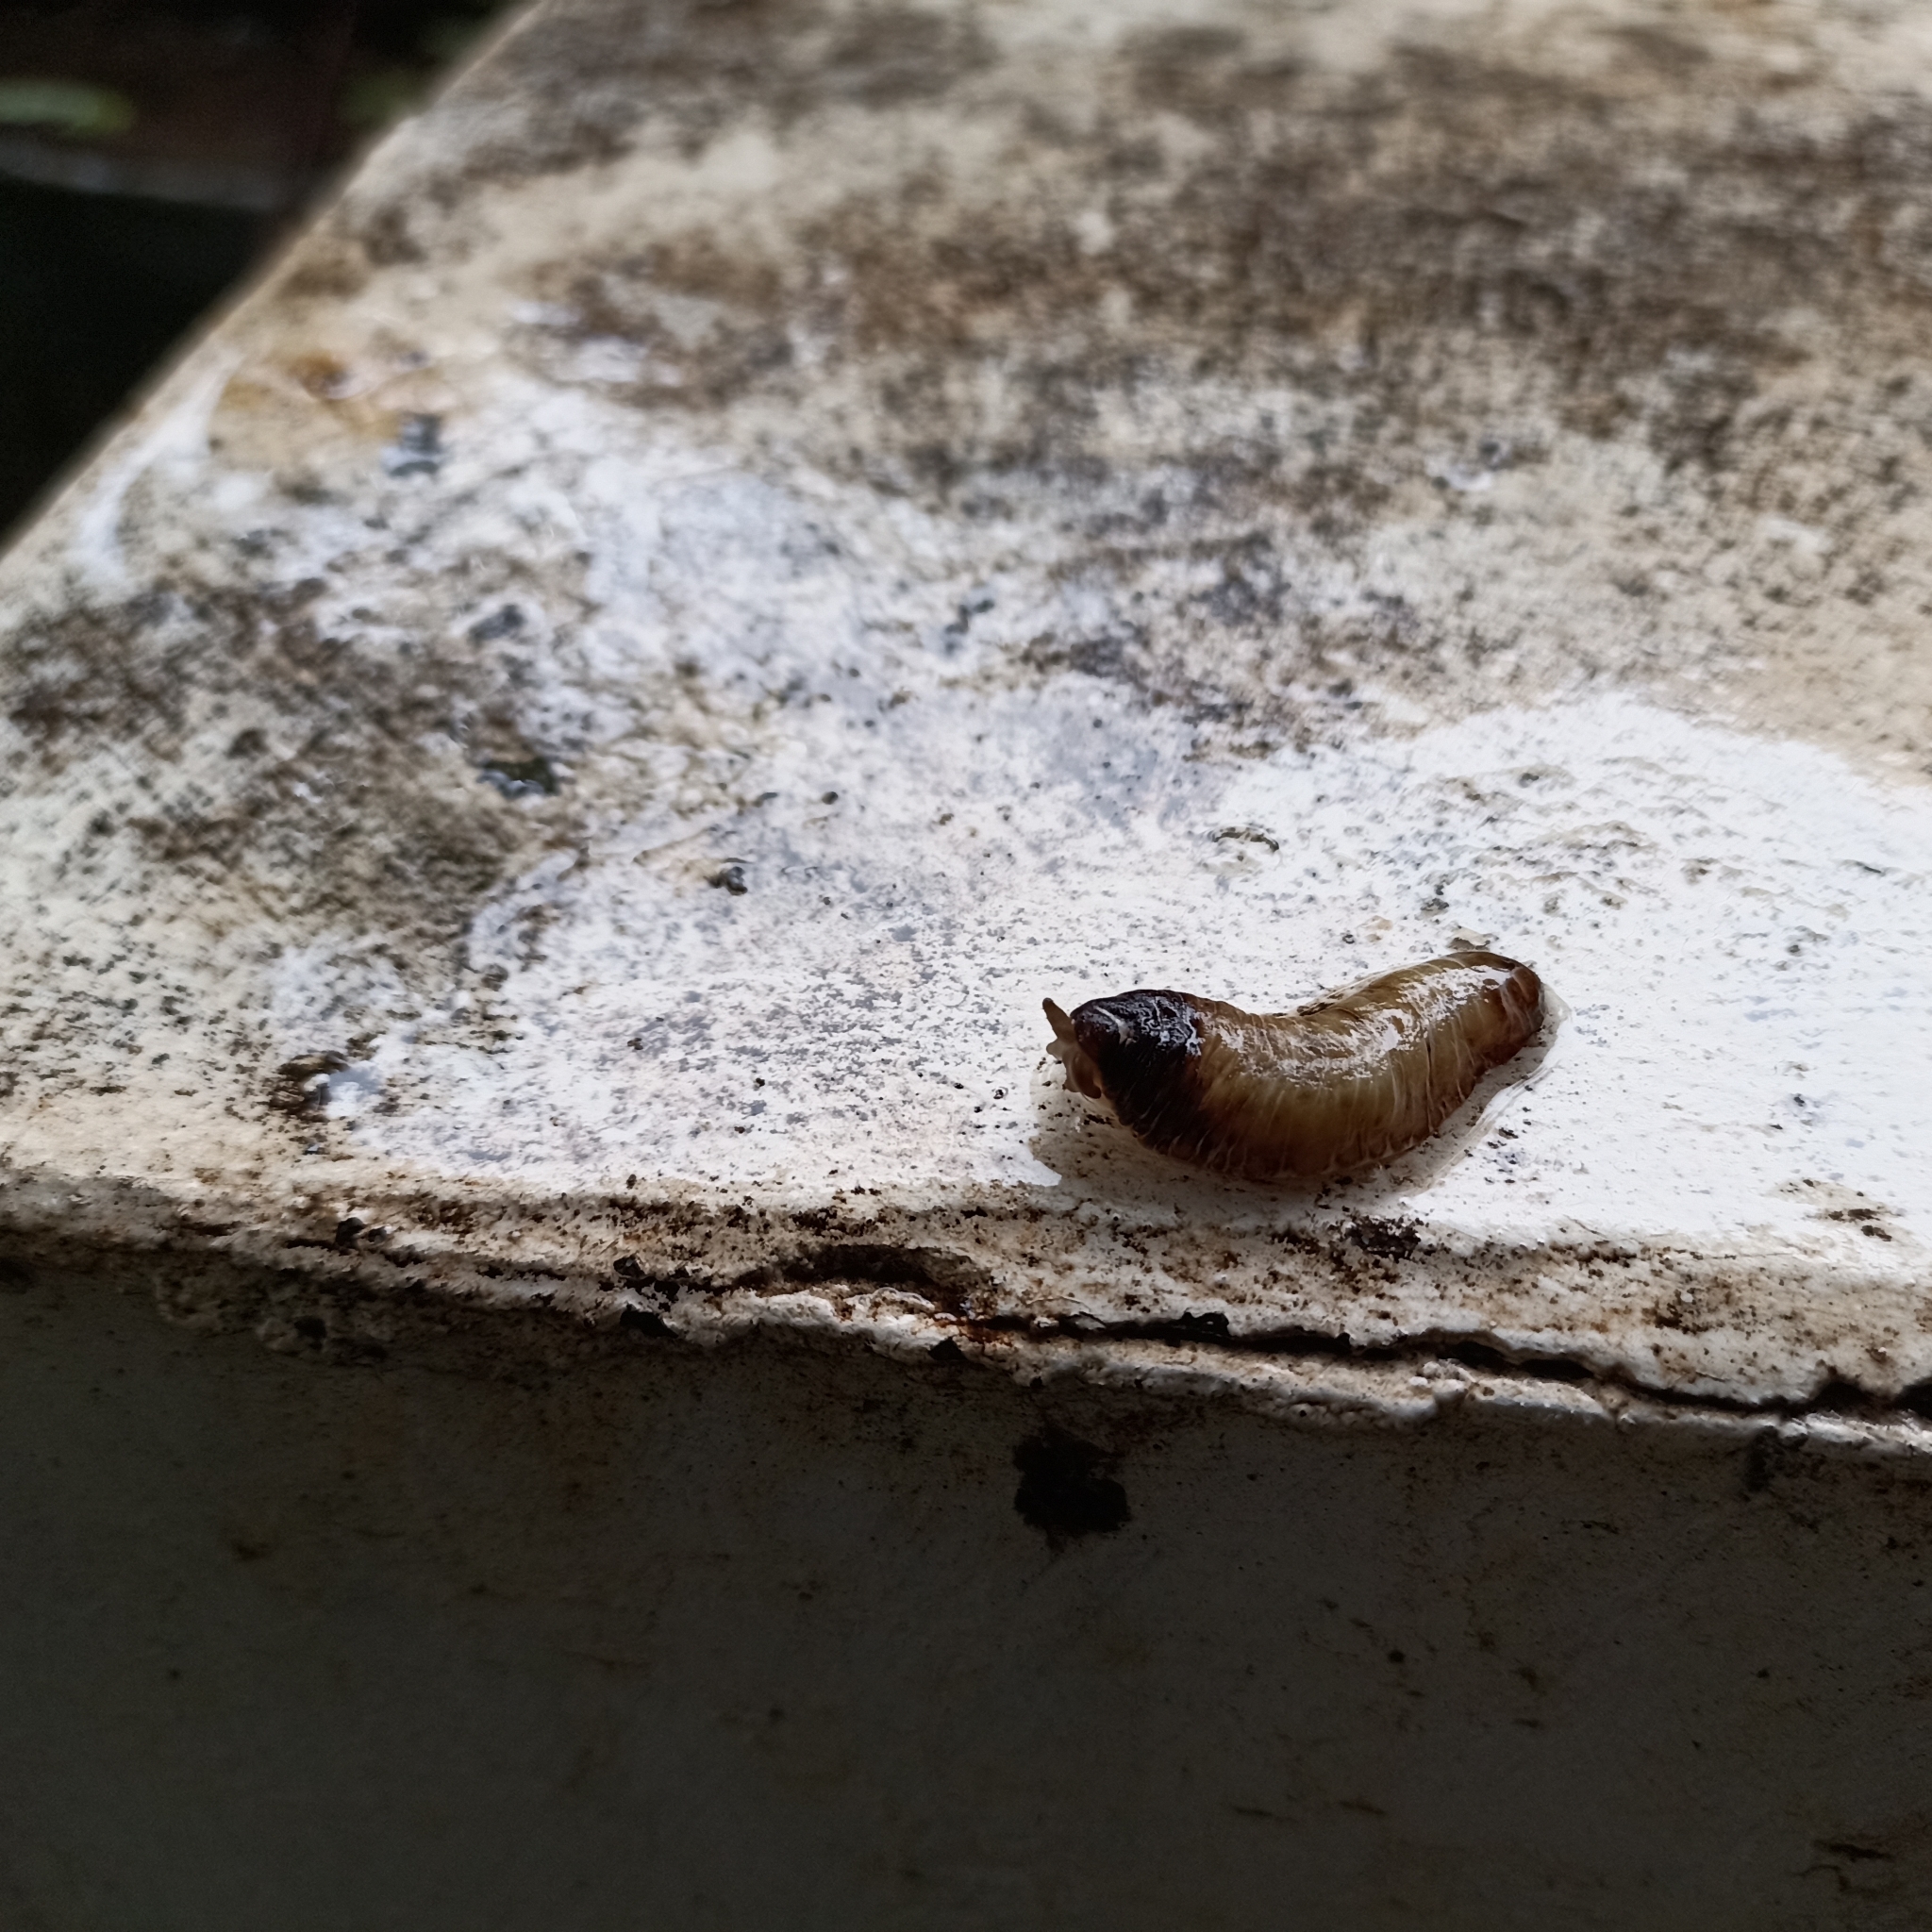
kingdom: Animalia
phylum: Mollusca
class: Gastropoda
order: Systellommatophora
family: Veronicellidae
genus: Laevicaulis
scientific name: Laevicaulis haroldi
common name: Caterpillar slug
